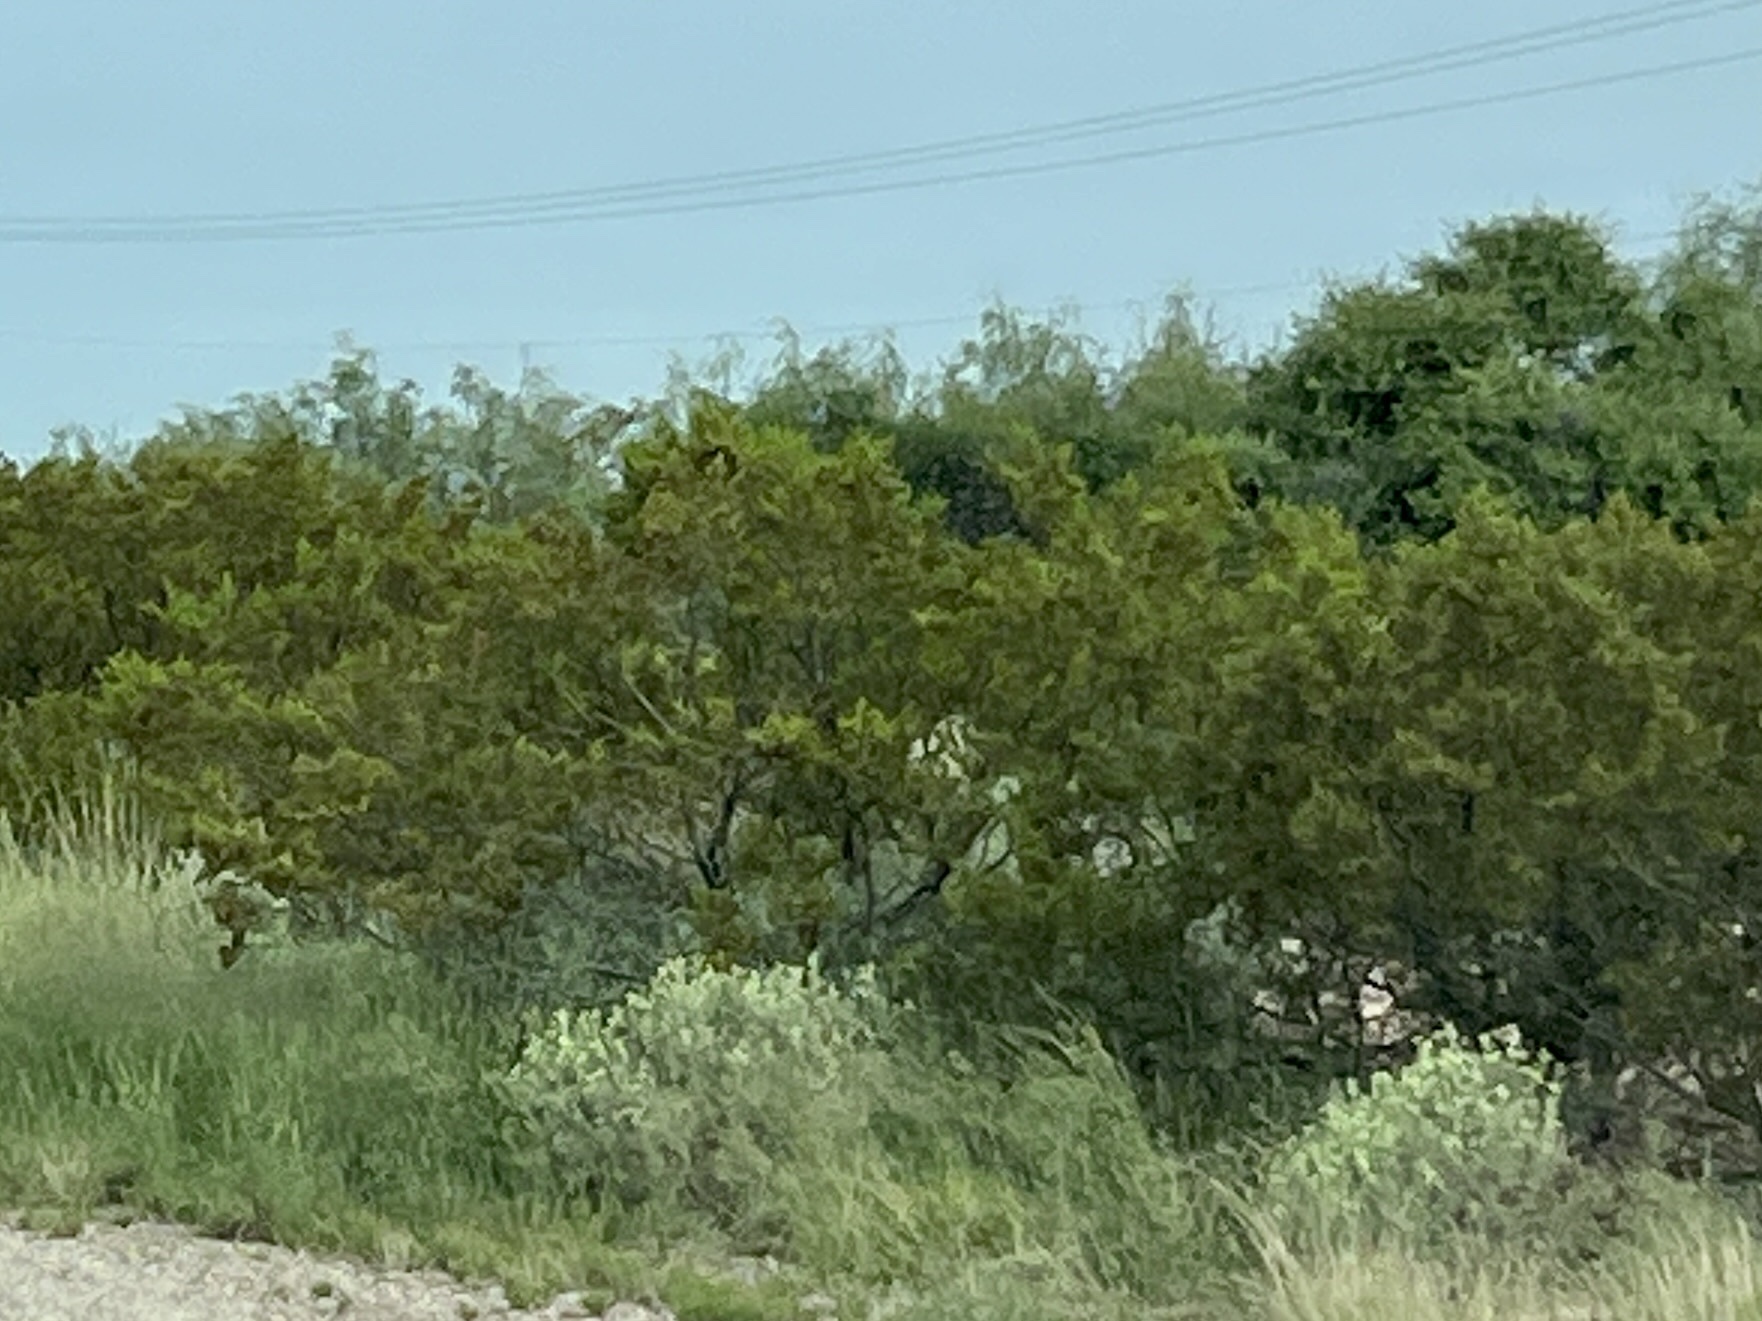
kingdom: Plantae
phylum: Tracheophyta
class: Magnoliopsida
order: Zygophyllales
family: Zygophyllaceae
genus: Larrea
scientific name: Larrea tridentata
